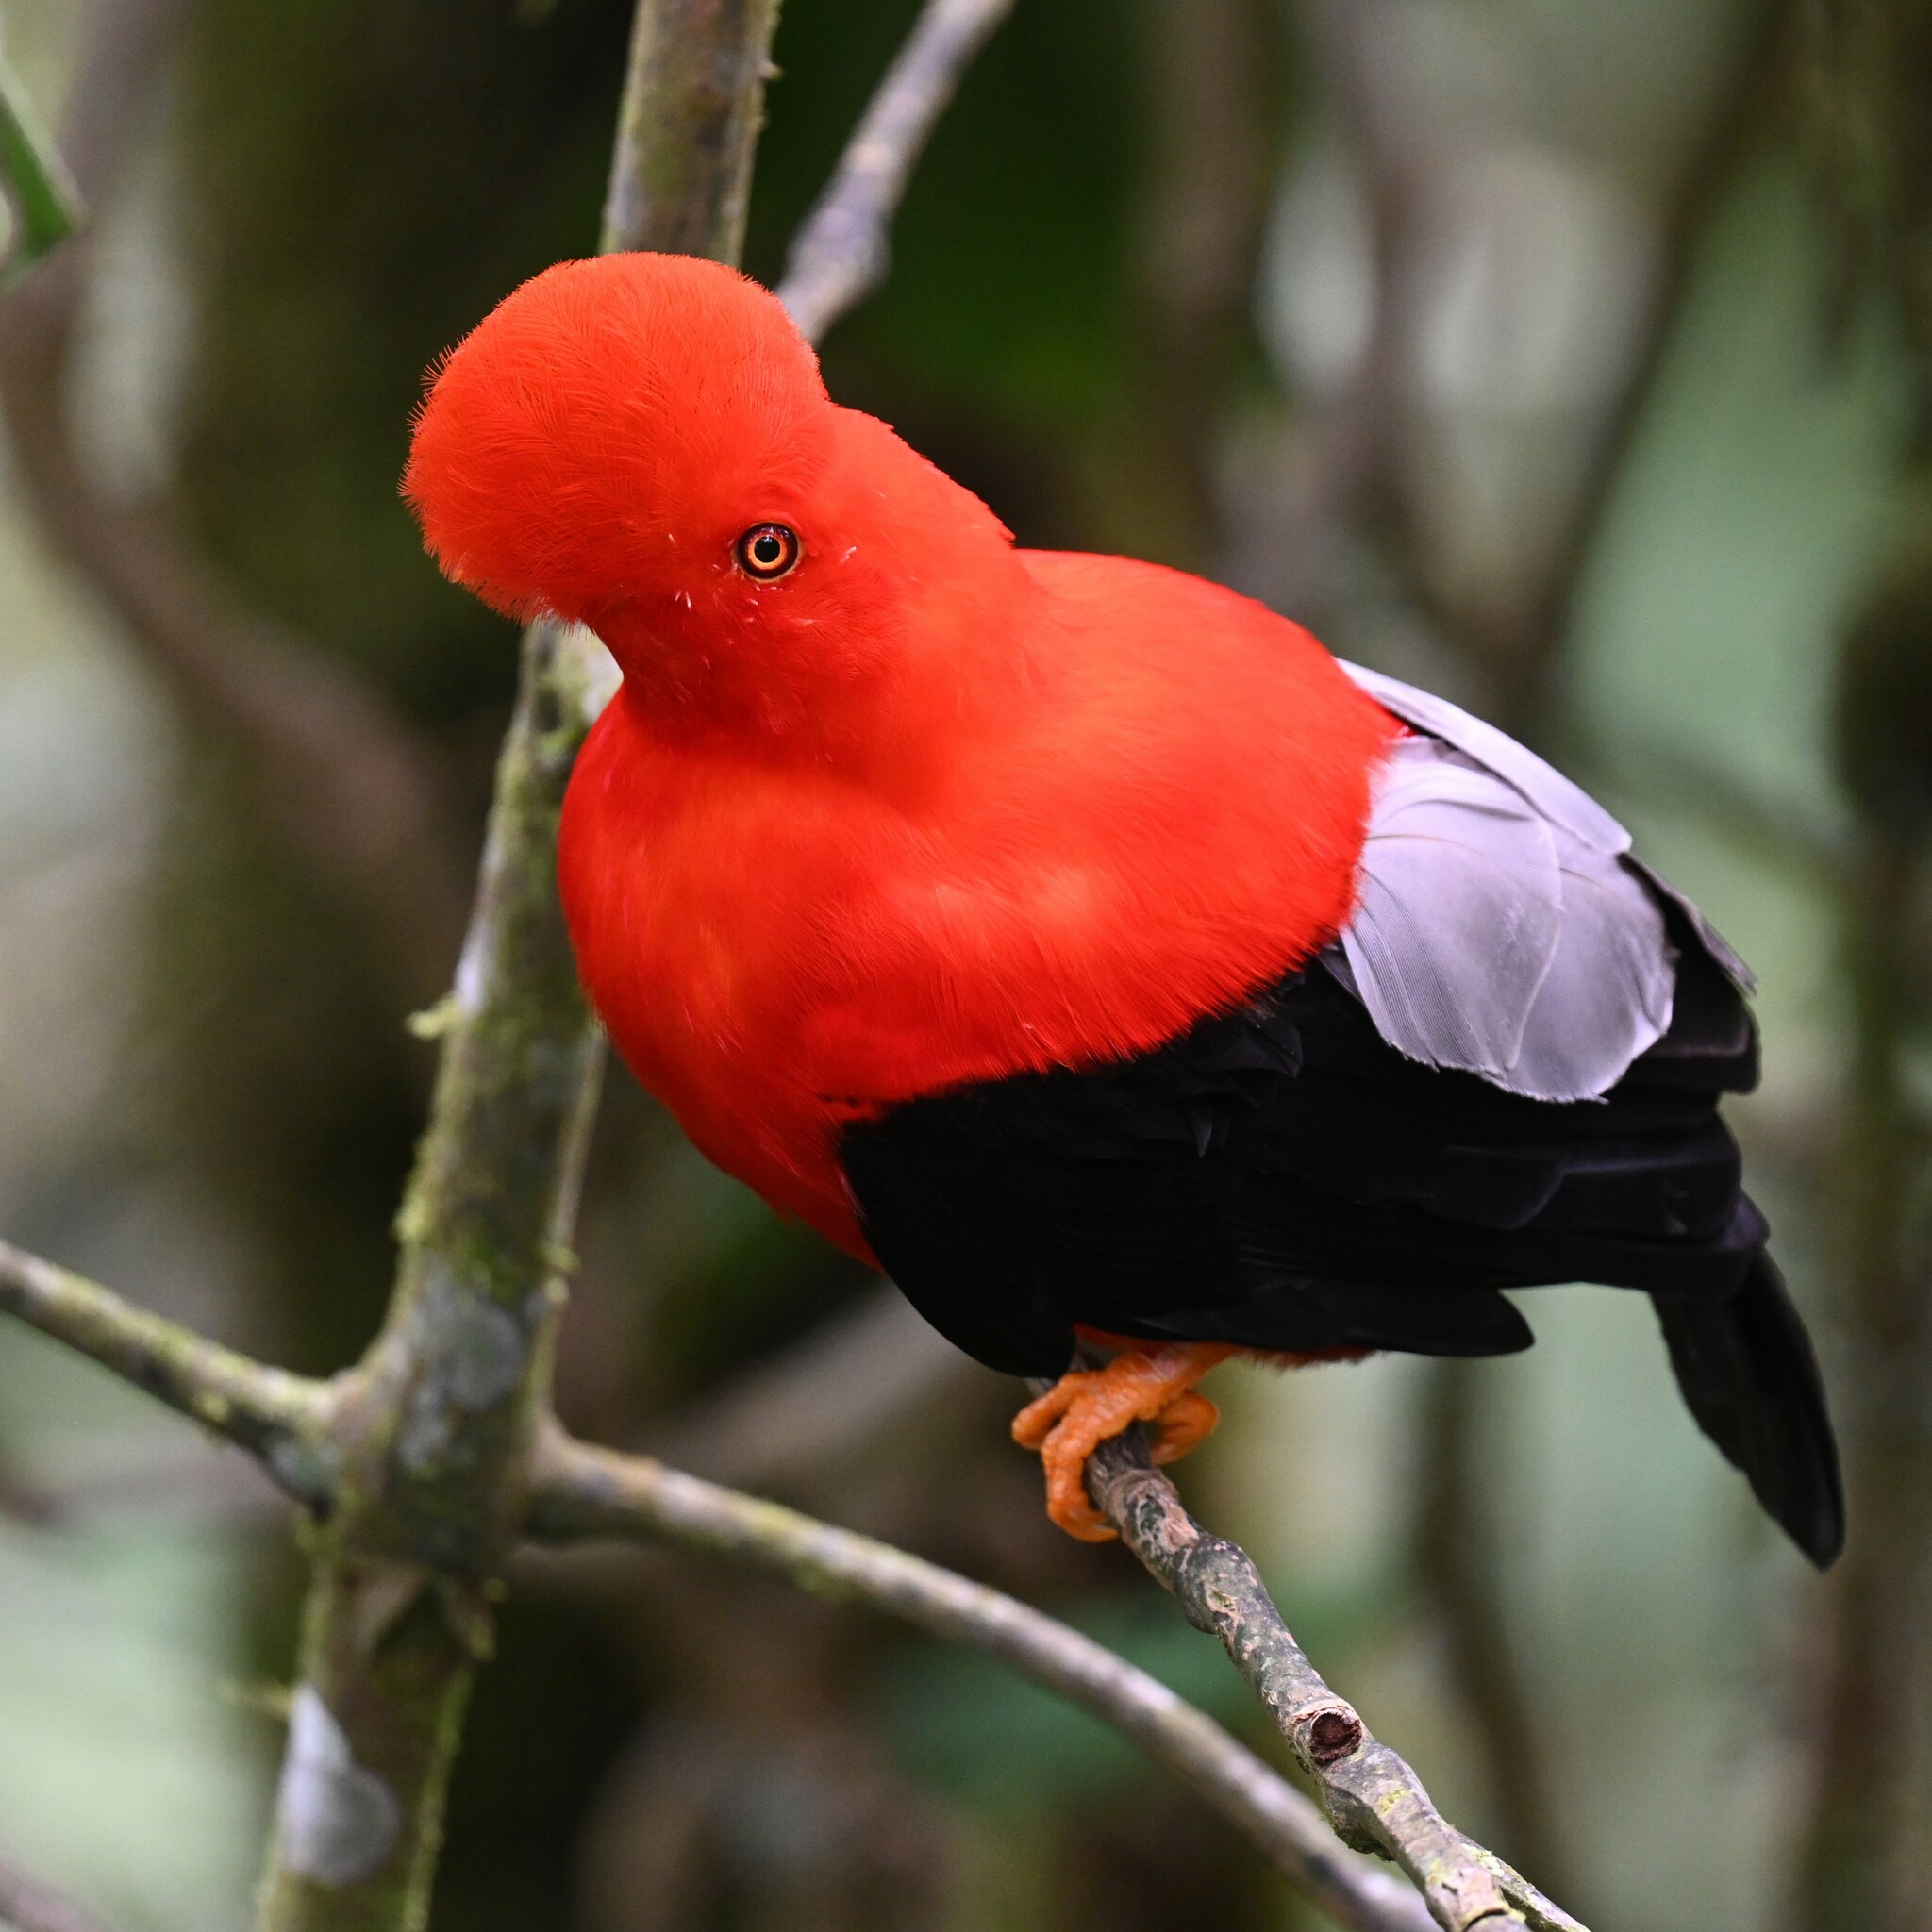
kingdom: Animalia
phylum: Chordata
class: Aves
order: Passeriformes
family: Cotingidae
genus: Rupicola
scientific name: Rupicola peruvianus
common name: Andean cock-of-the-rock
